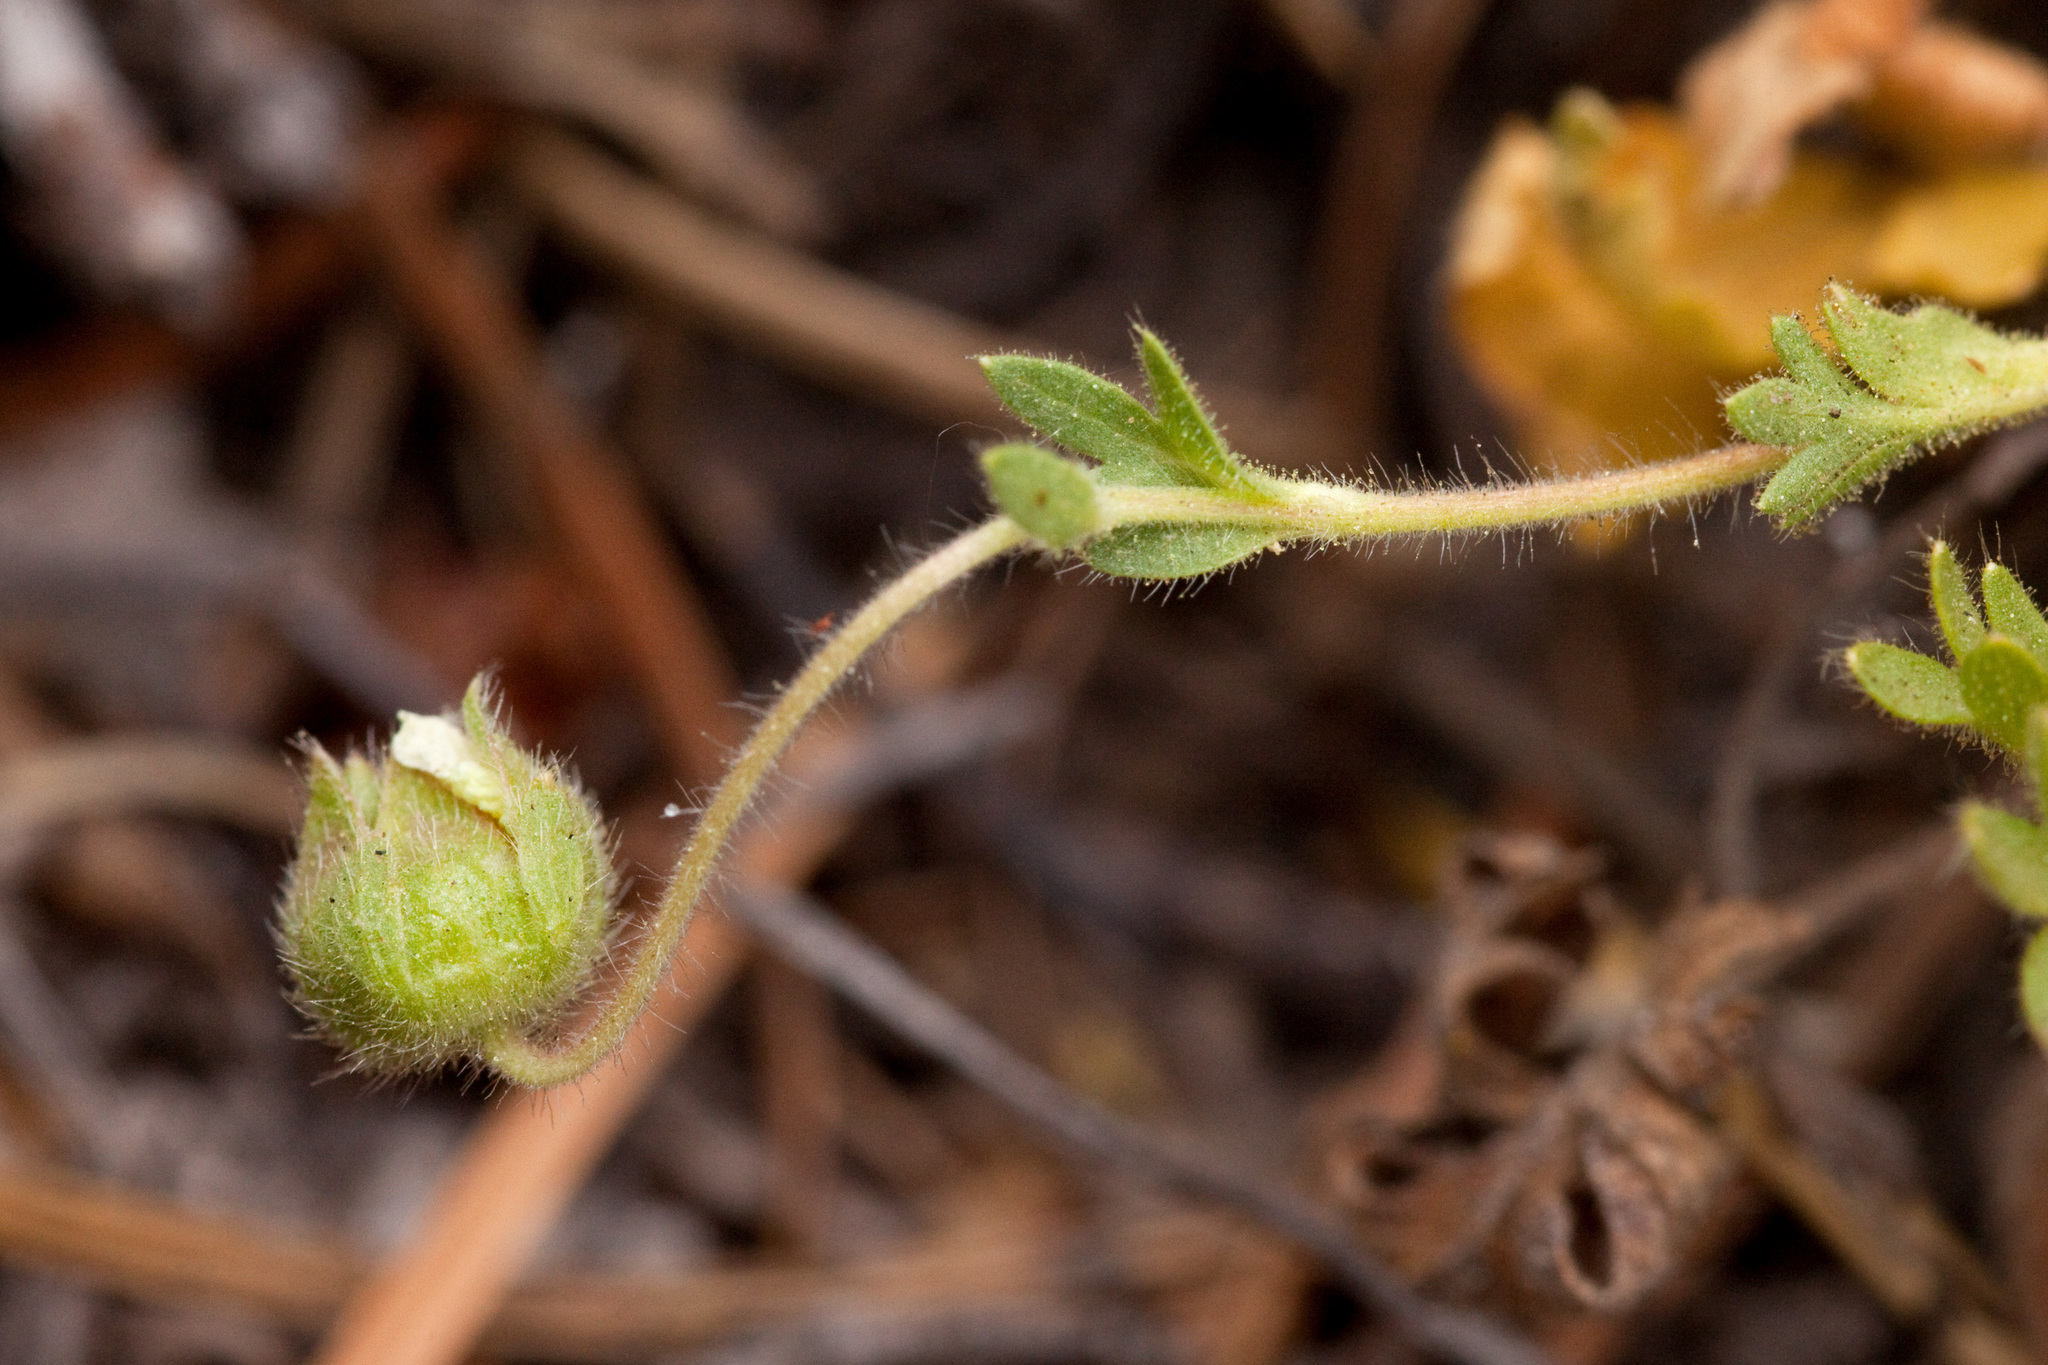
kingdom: Plantae
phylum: Tracheophyta
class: Magnoliopsida
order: Rosales
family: Rosaceae
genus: Potentilla
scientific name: Potentilla subviscosa
